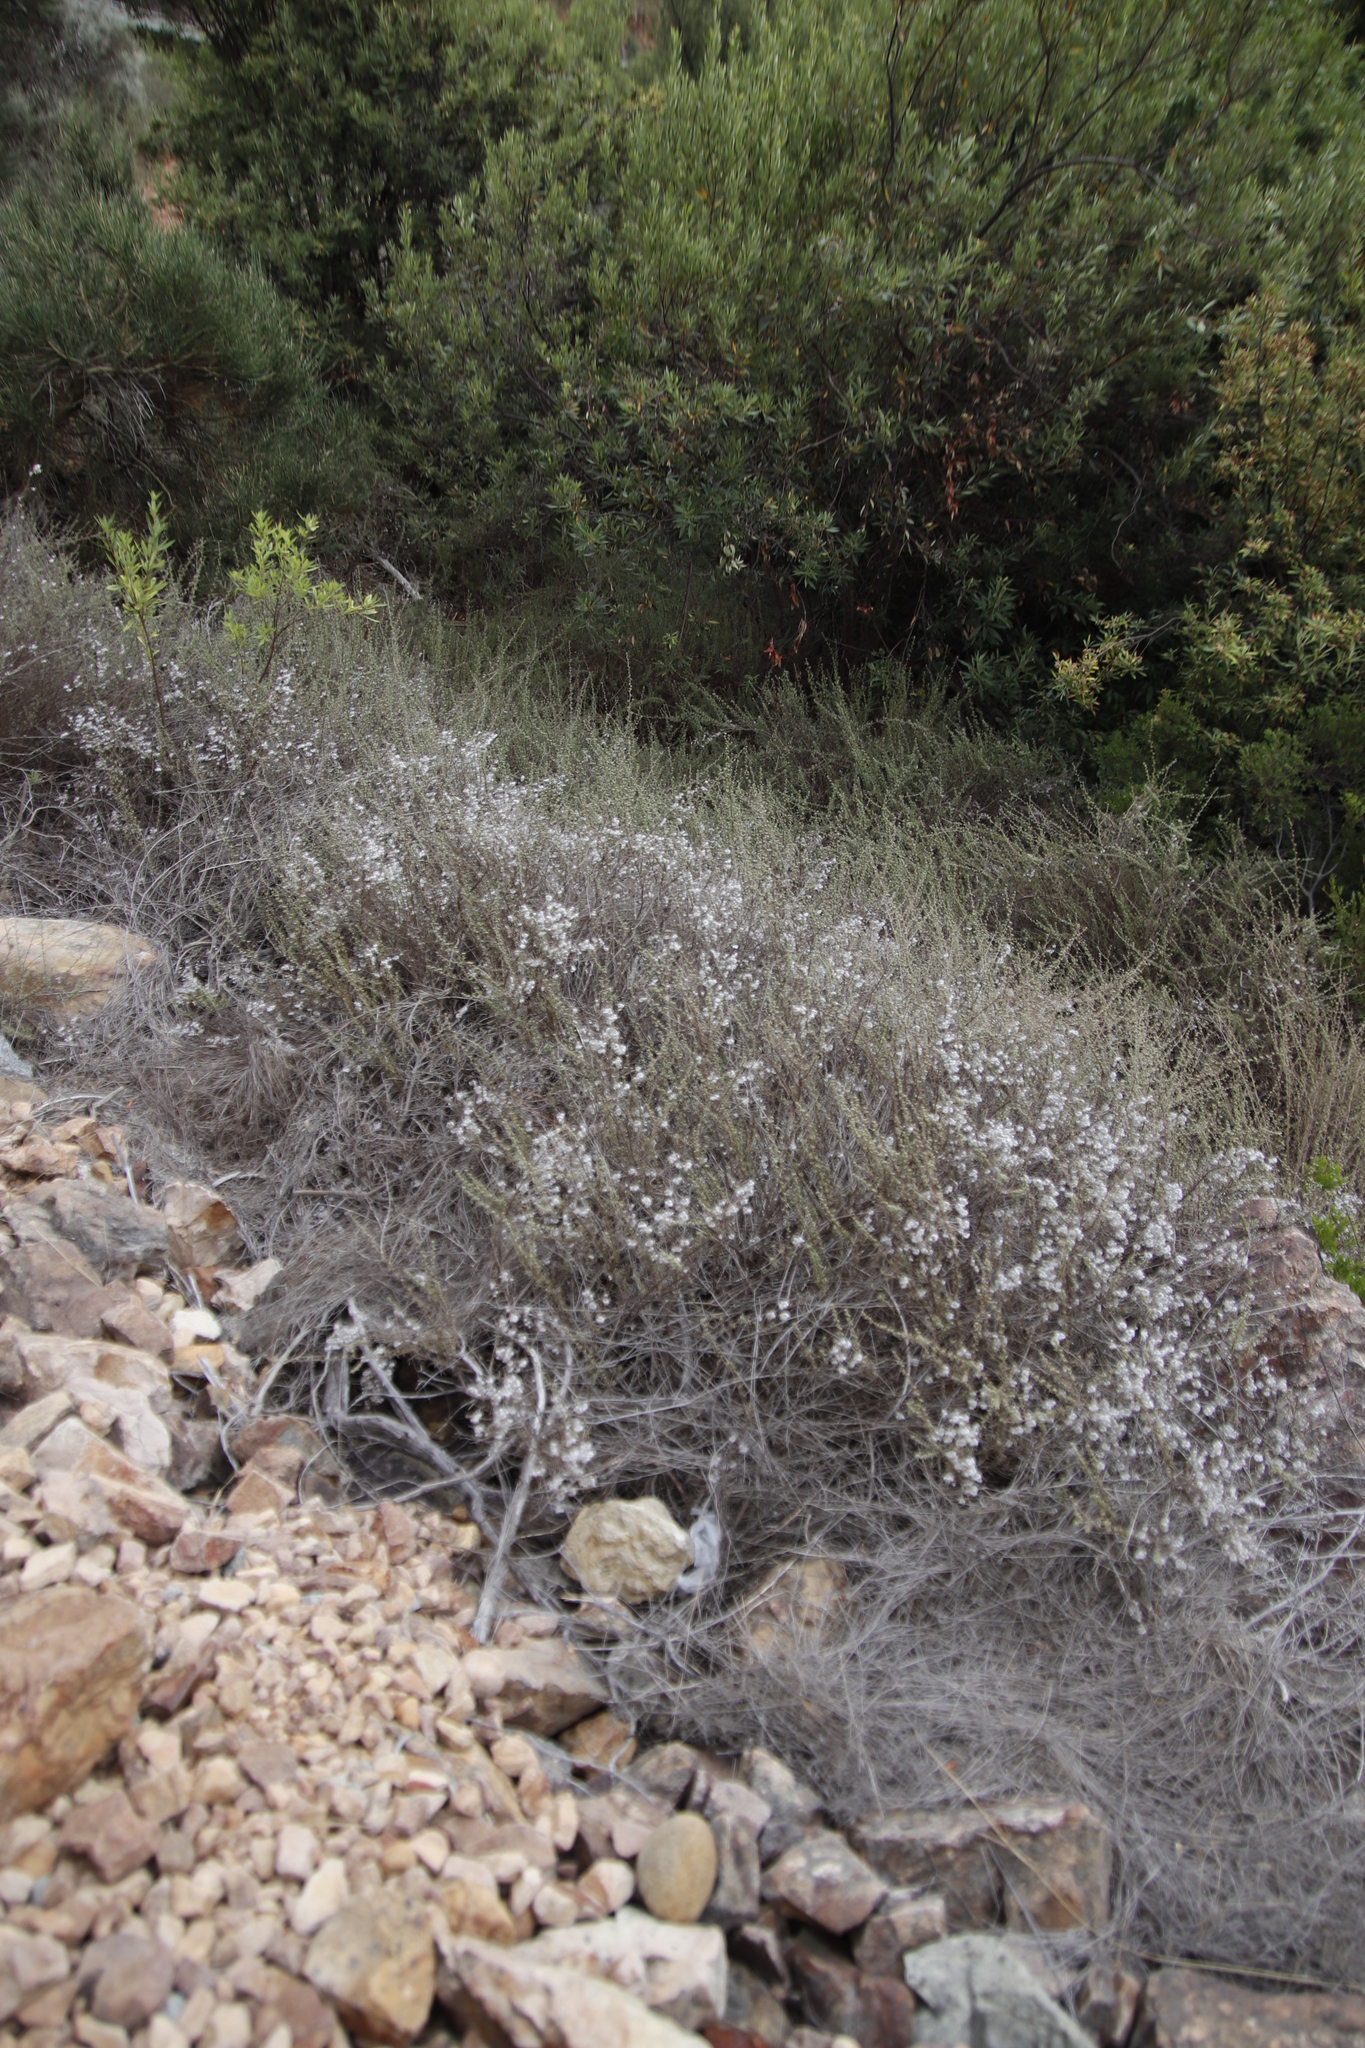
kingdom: Plantae
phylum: Tracheophyta
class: Magnoliopsida
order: Asterales
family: Asteraceae
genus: Eriocephalus
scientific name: Eriocephalus africanus
